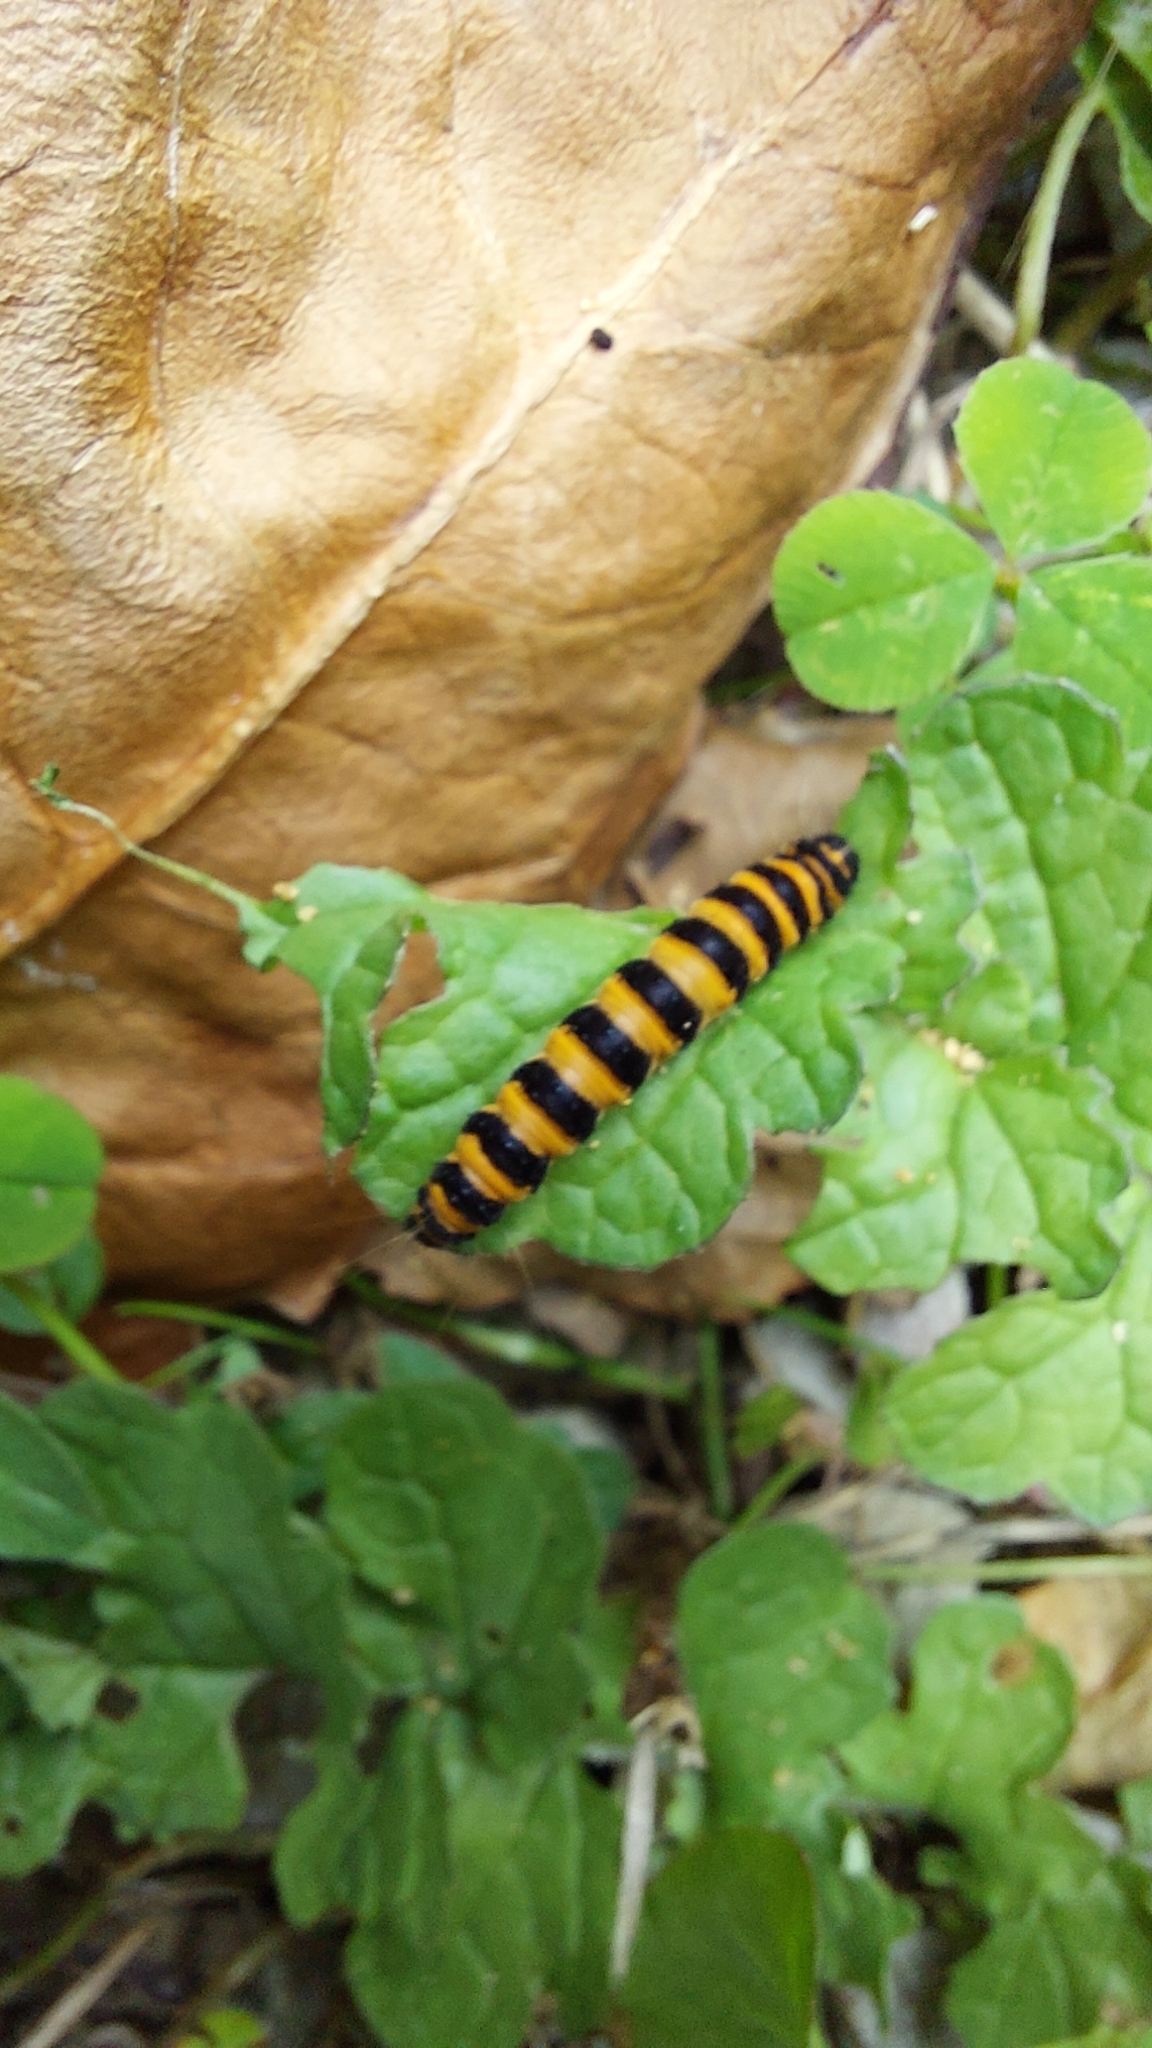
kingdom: Animalia
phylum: Arthropoda
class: Insecta
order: Lepidoptera
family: Erebidae
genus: Tyria
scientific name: Tyria jacobaeae
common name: Cinnabar
